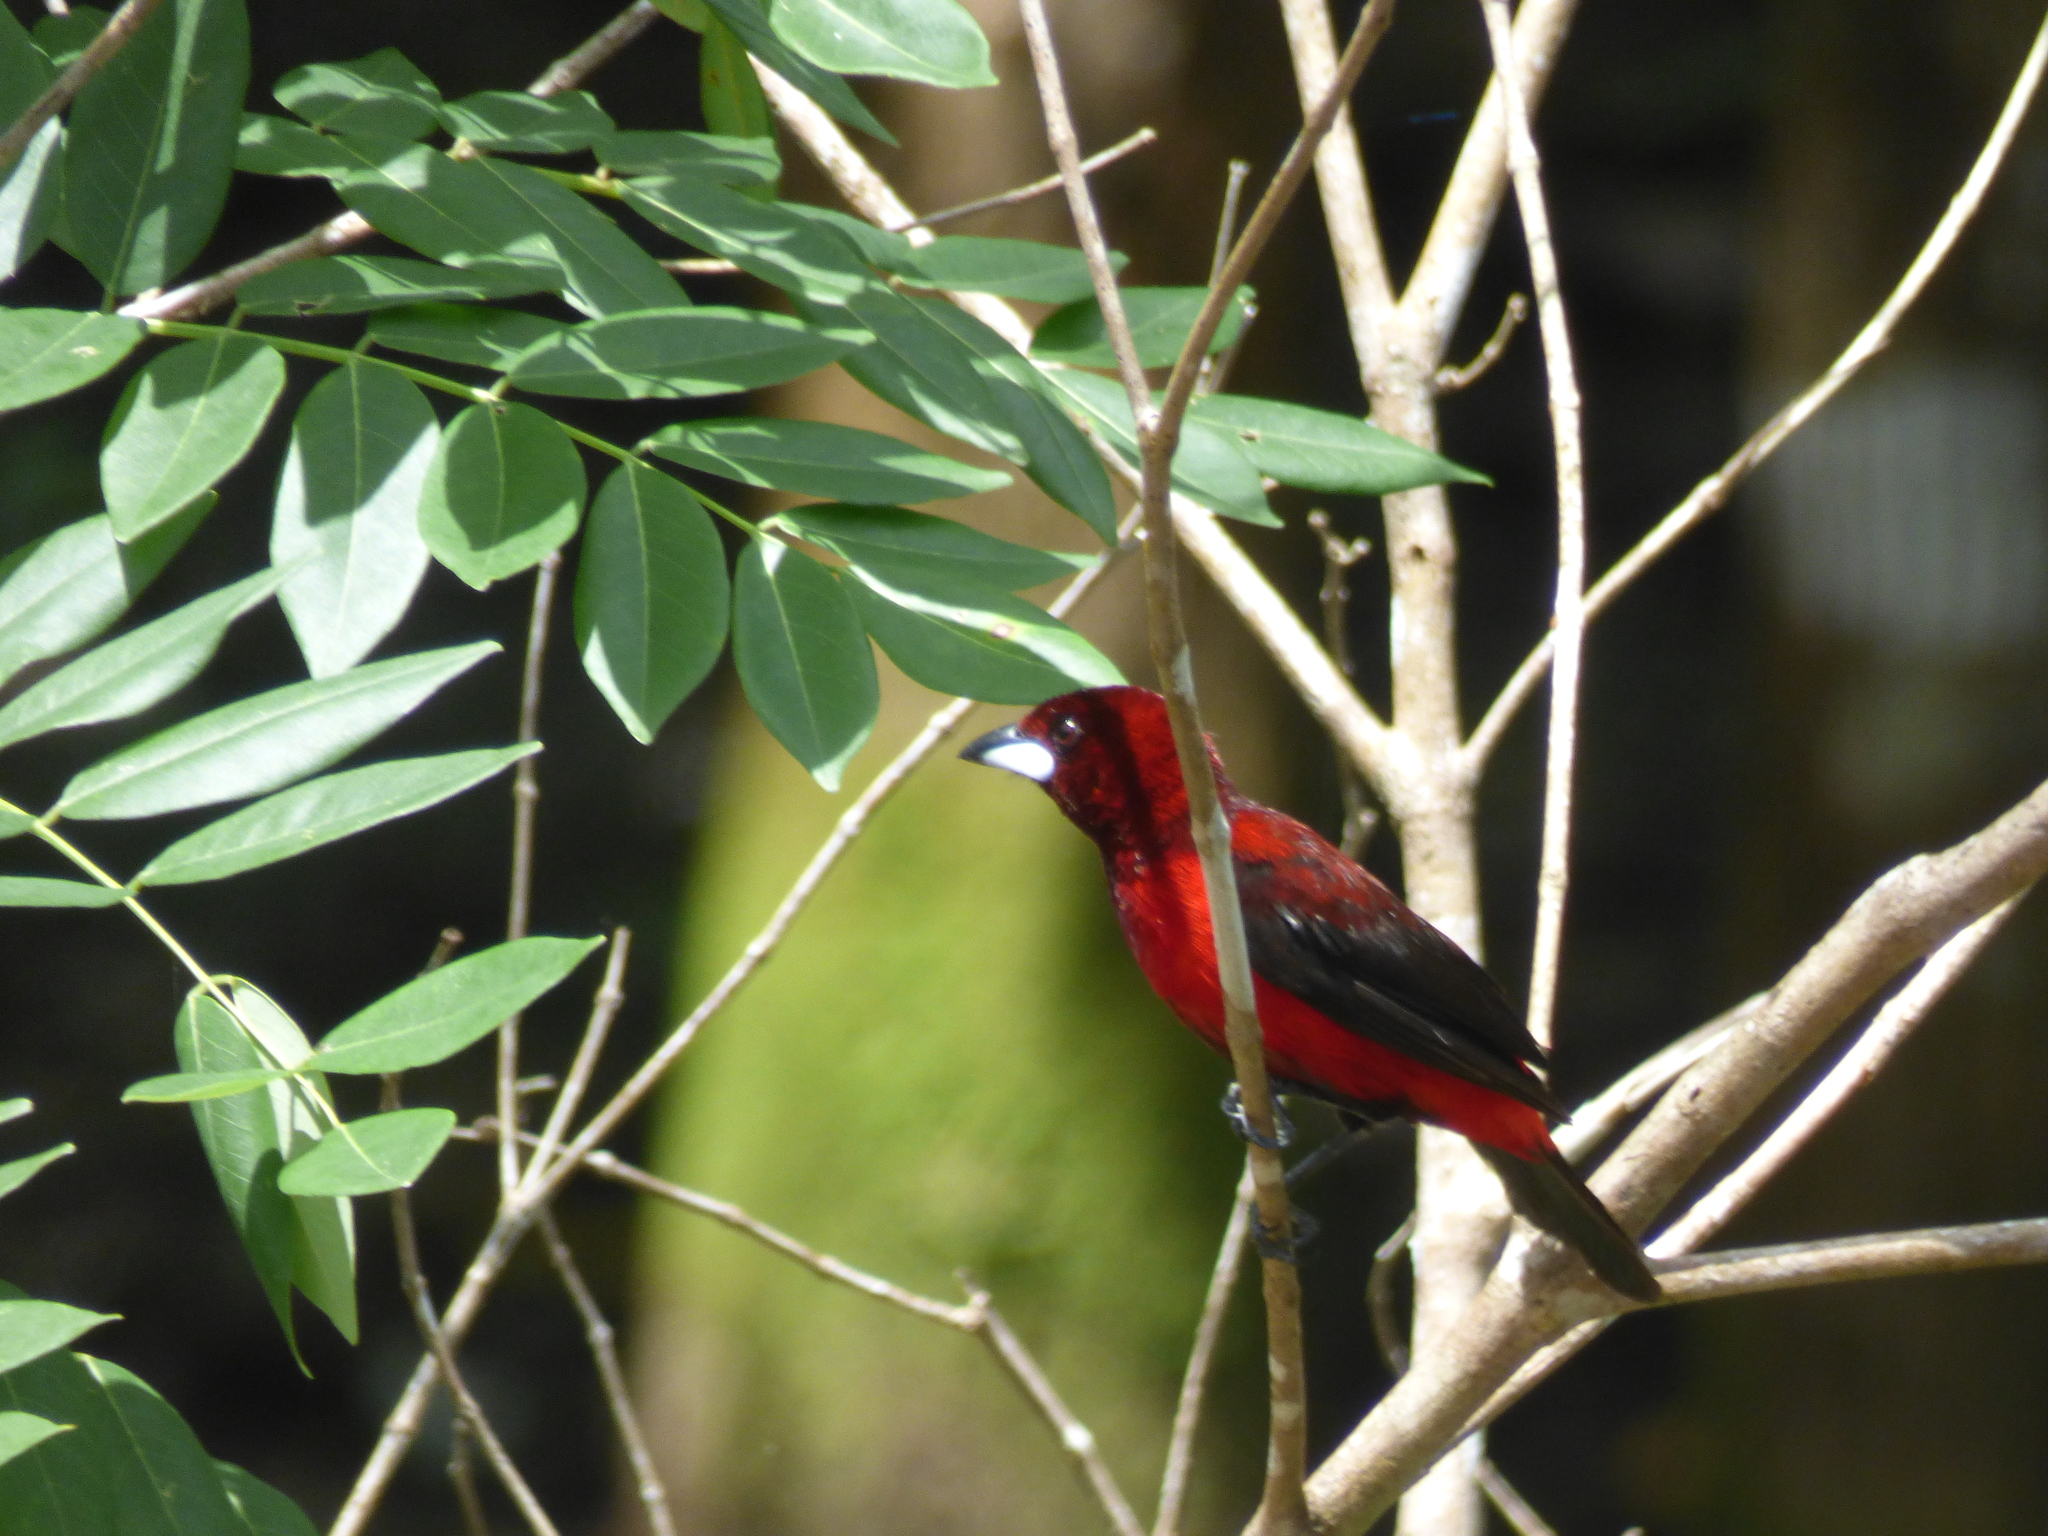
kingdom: Animalia
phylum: Chordata
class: Aves
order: Passeriformes
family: Thraupidae
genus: Ramphocelus
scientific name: Ramphocelus dimidiatus
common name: Crimson-backed tanager
